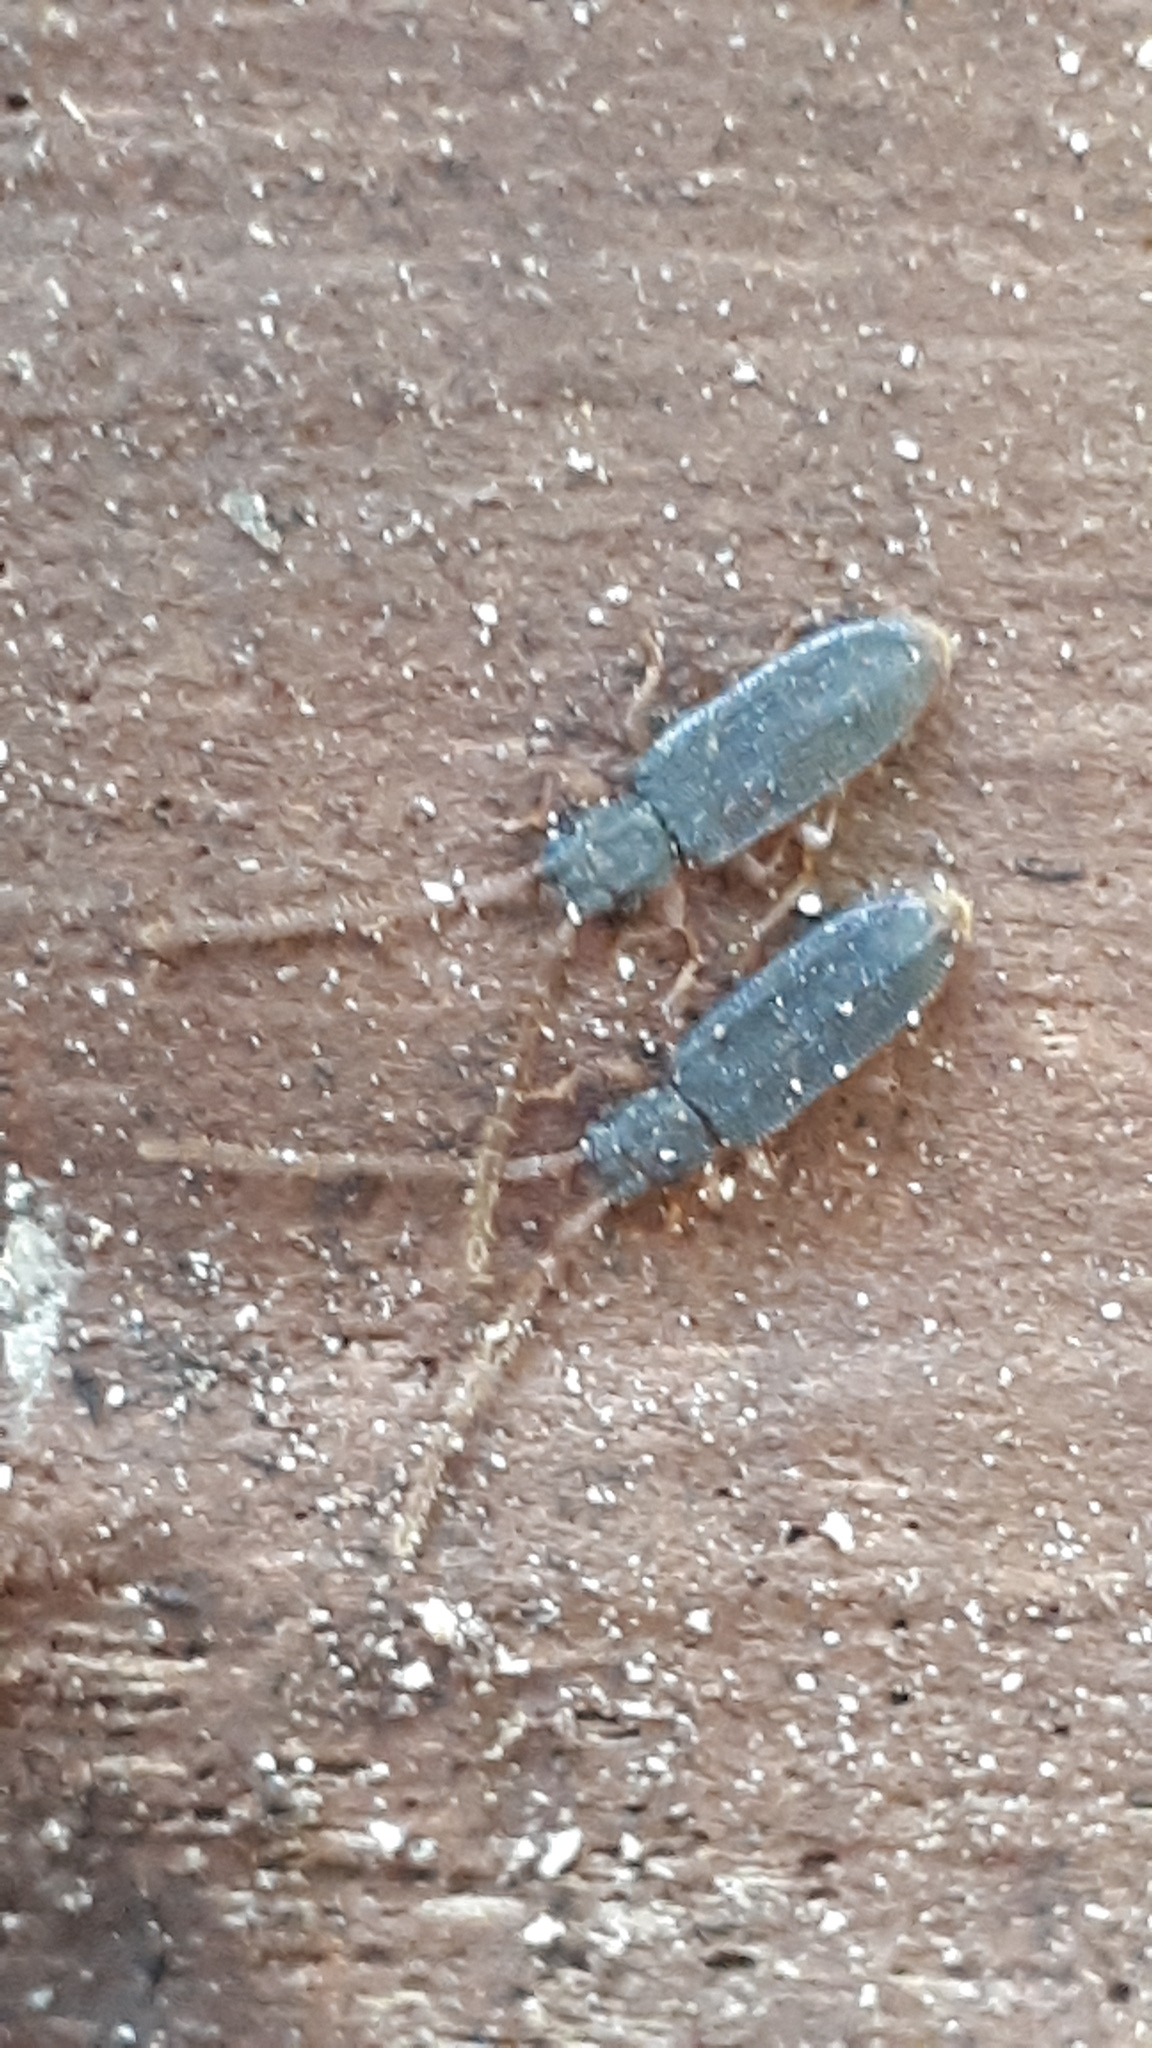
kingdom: Animalia
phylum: Arthropoda
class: Insecta
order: Coleoptera
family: Silvanidae
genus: Uleiota
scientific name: Uleiota planatus
